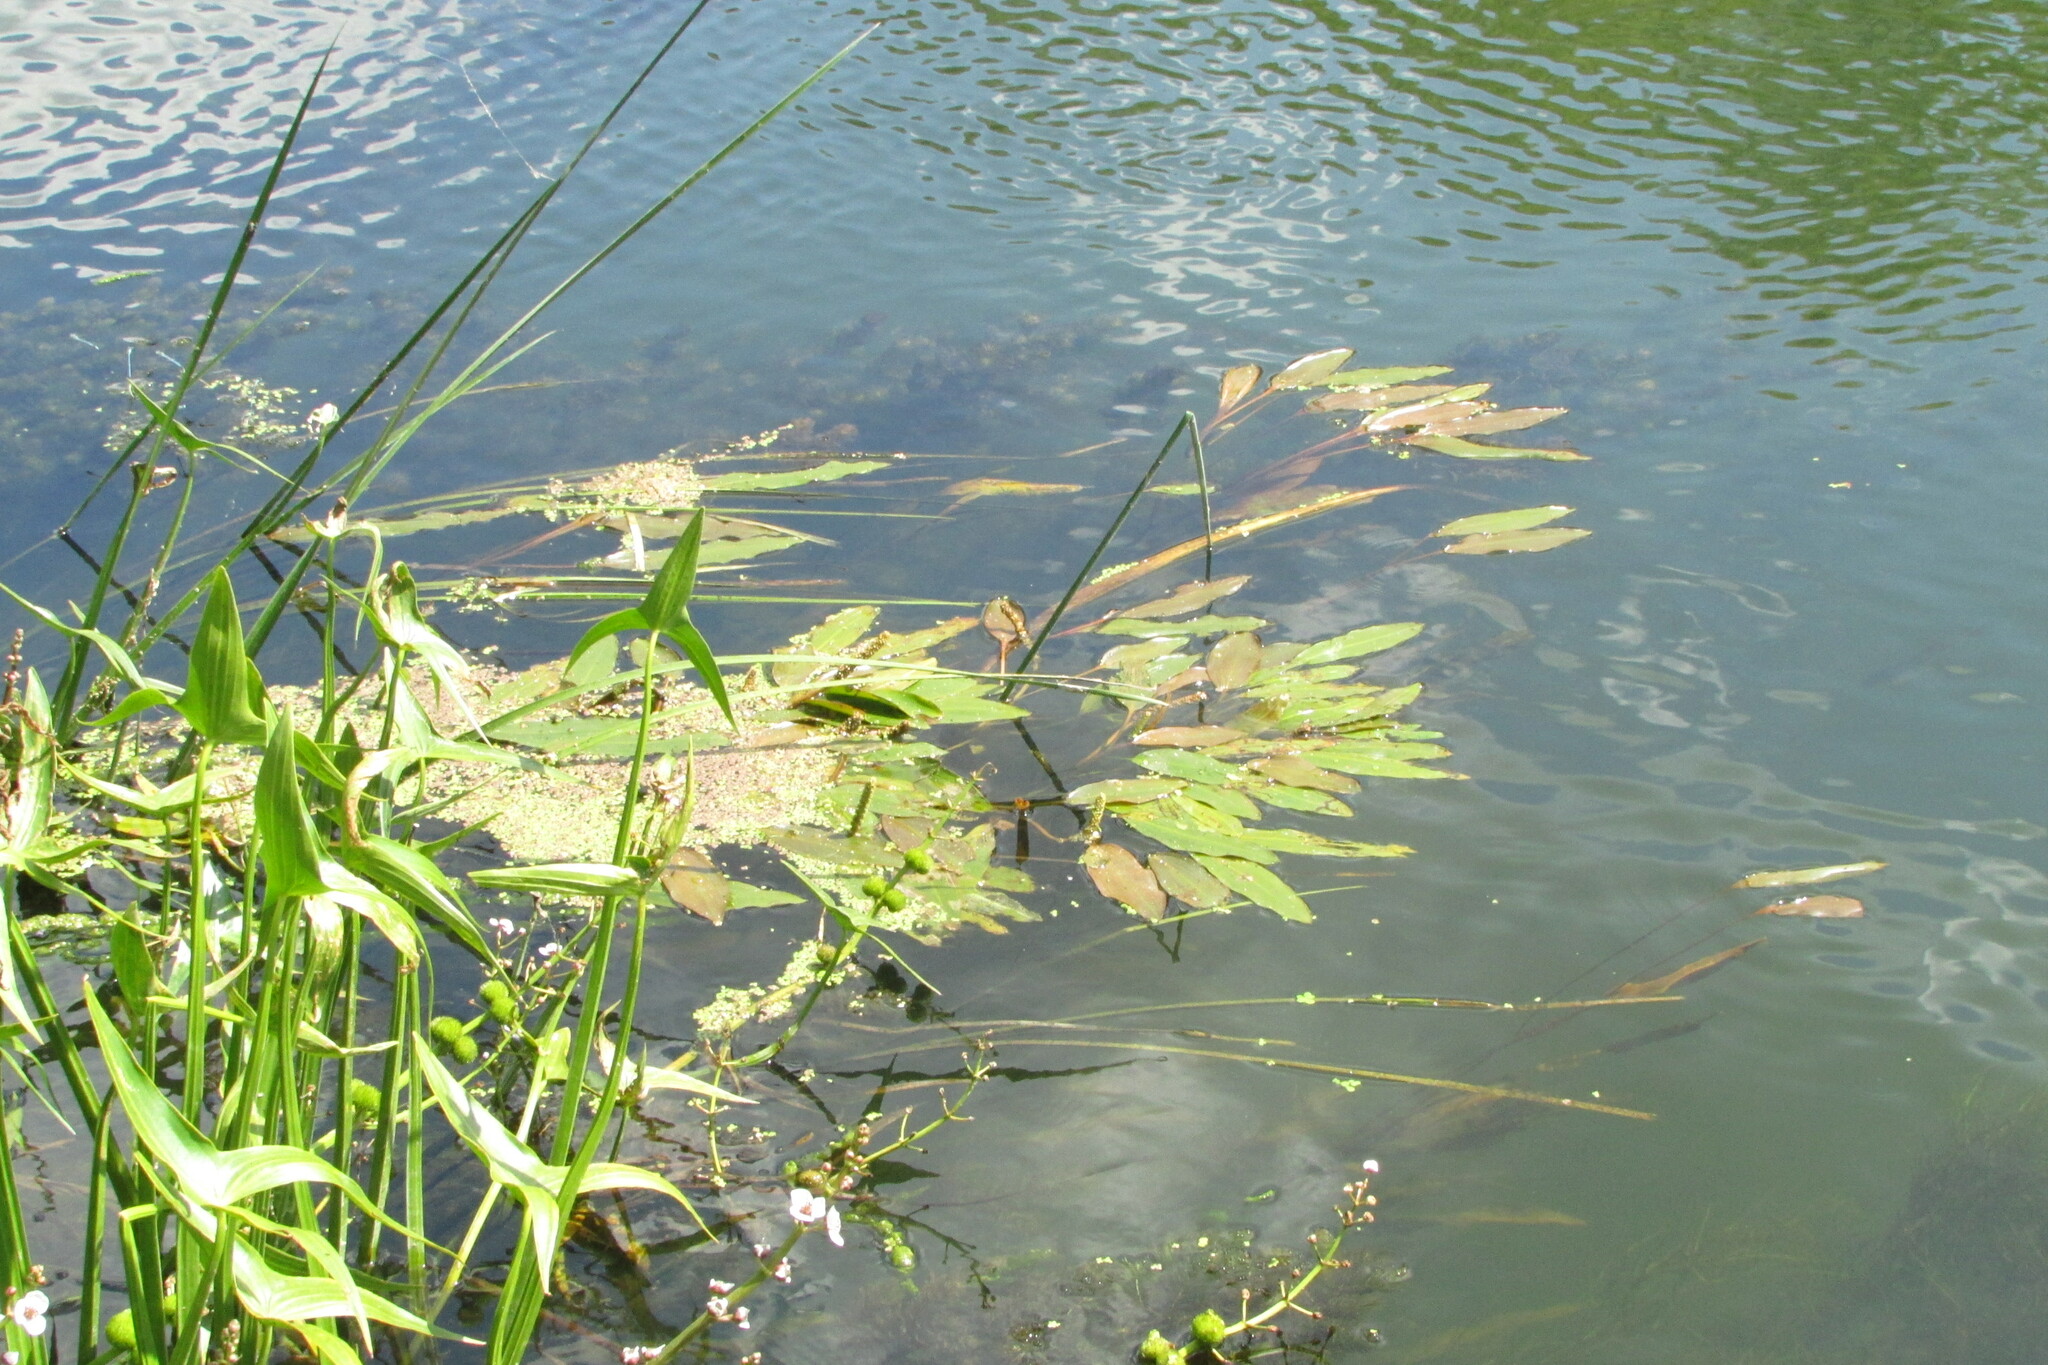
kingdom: Plantae
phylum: Tracheophyta
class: Liliopsida
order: Alismatales
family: Potamogetonaceae
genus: Potamogeton
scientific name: Potamogeton nodosus
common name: Loddon pondweed
